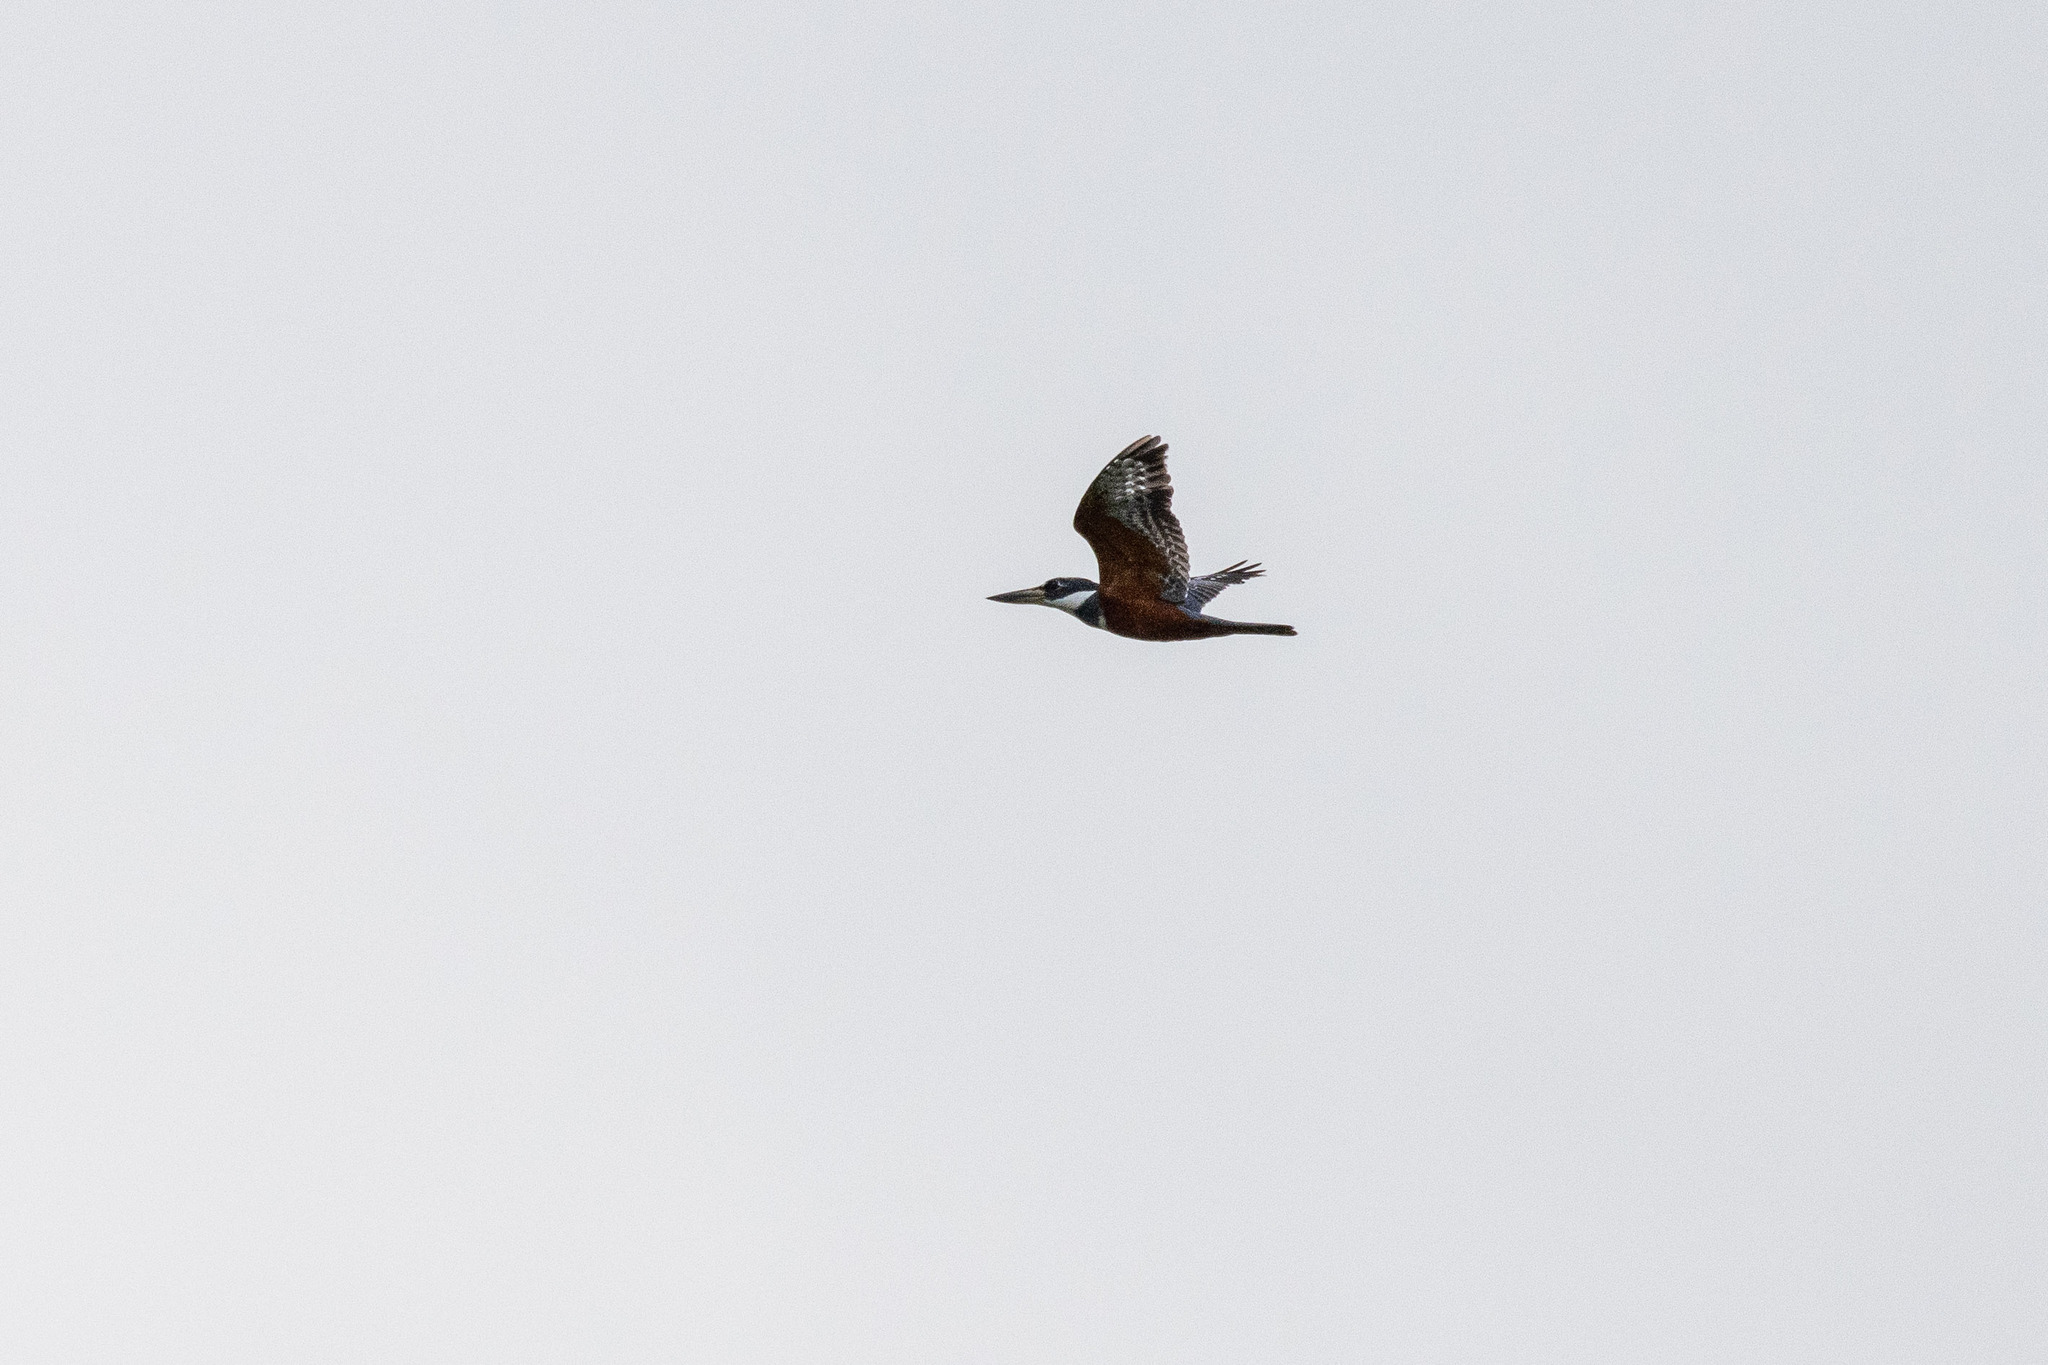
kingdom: Animalia
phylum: Chordata
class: Aves
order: Coraciiformes
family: Alcedinidae
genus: Megaceryle
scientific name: Megaceryle torquata
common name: Ringed kingfisher
